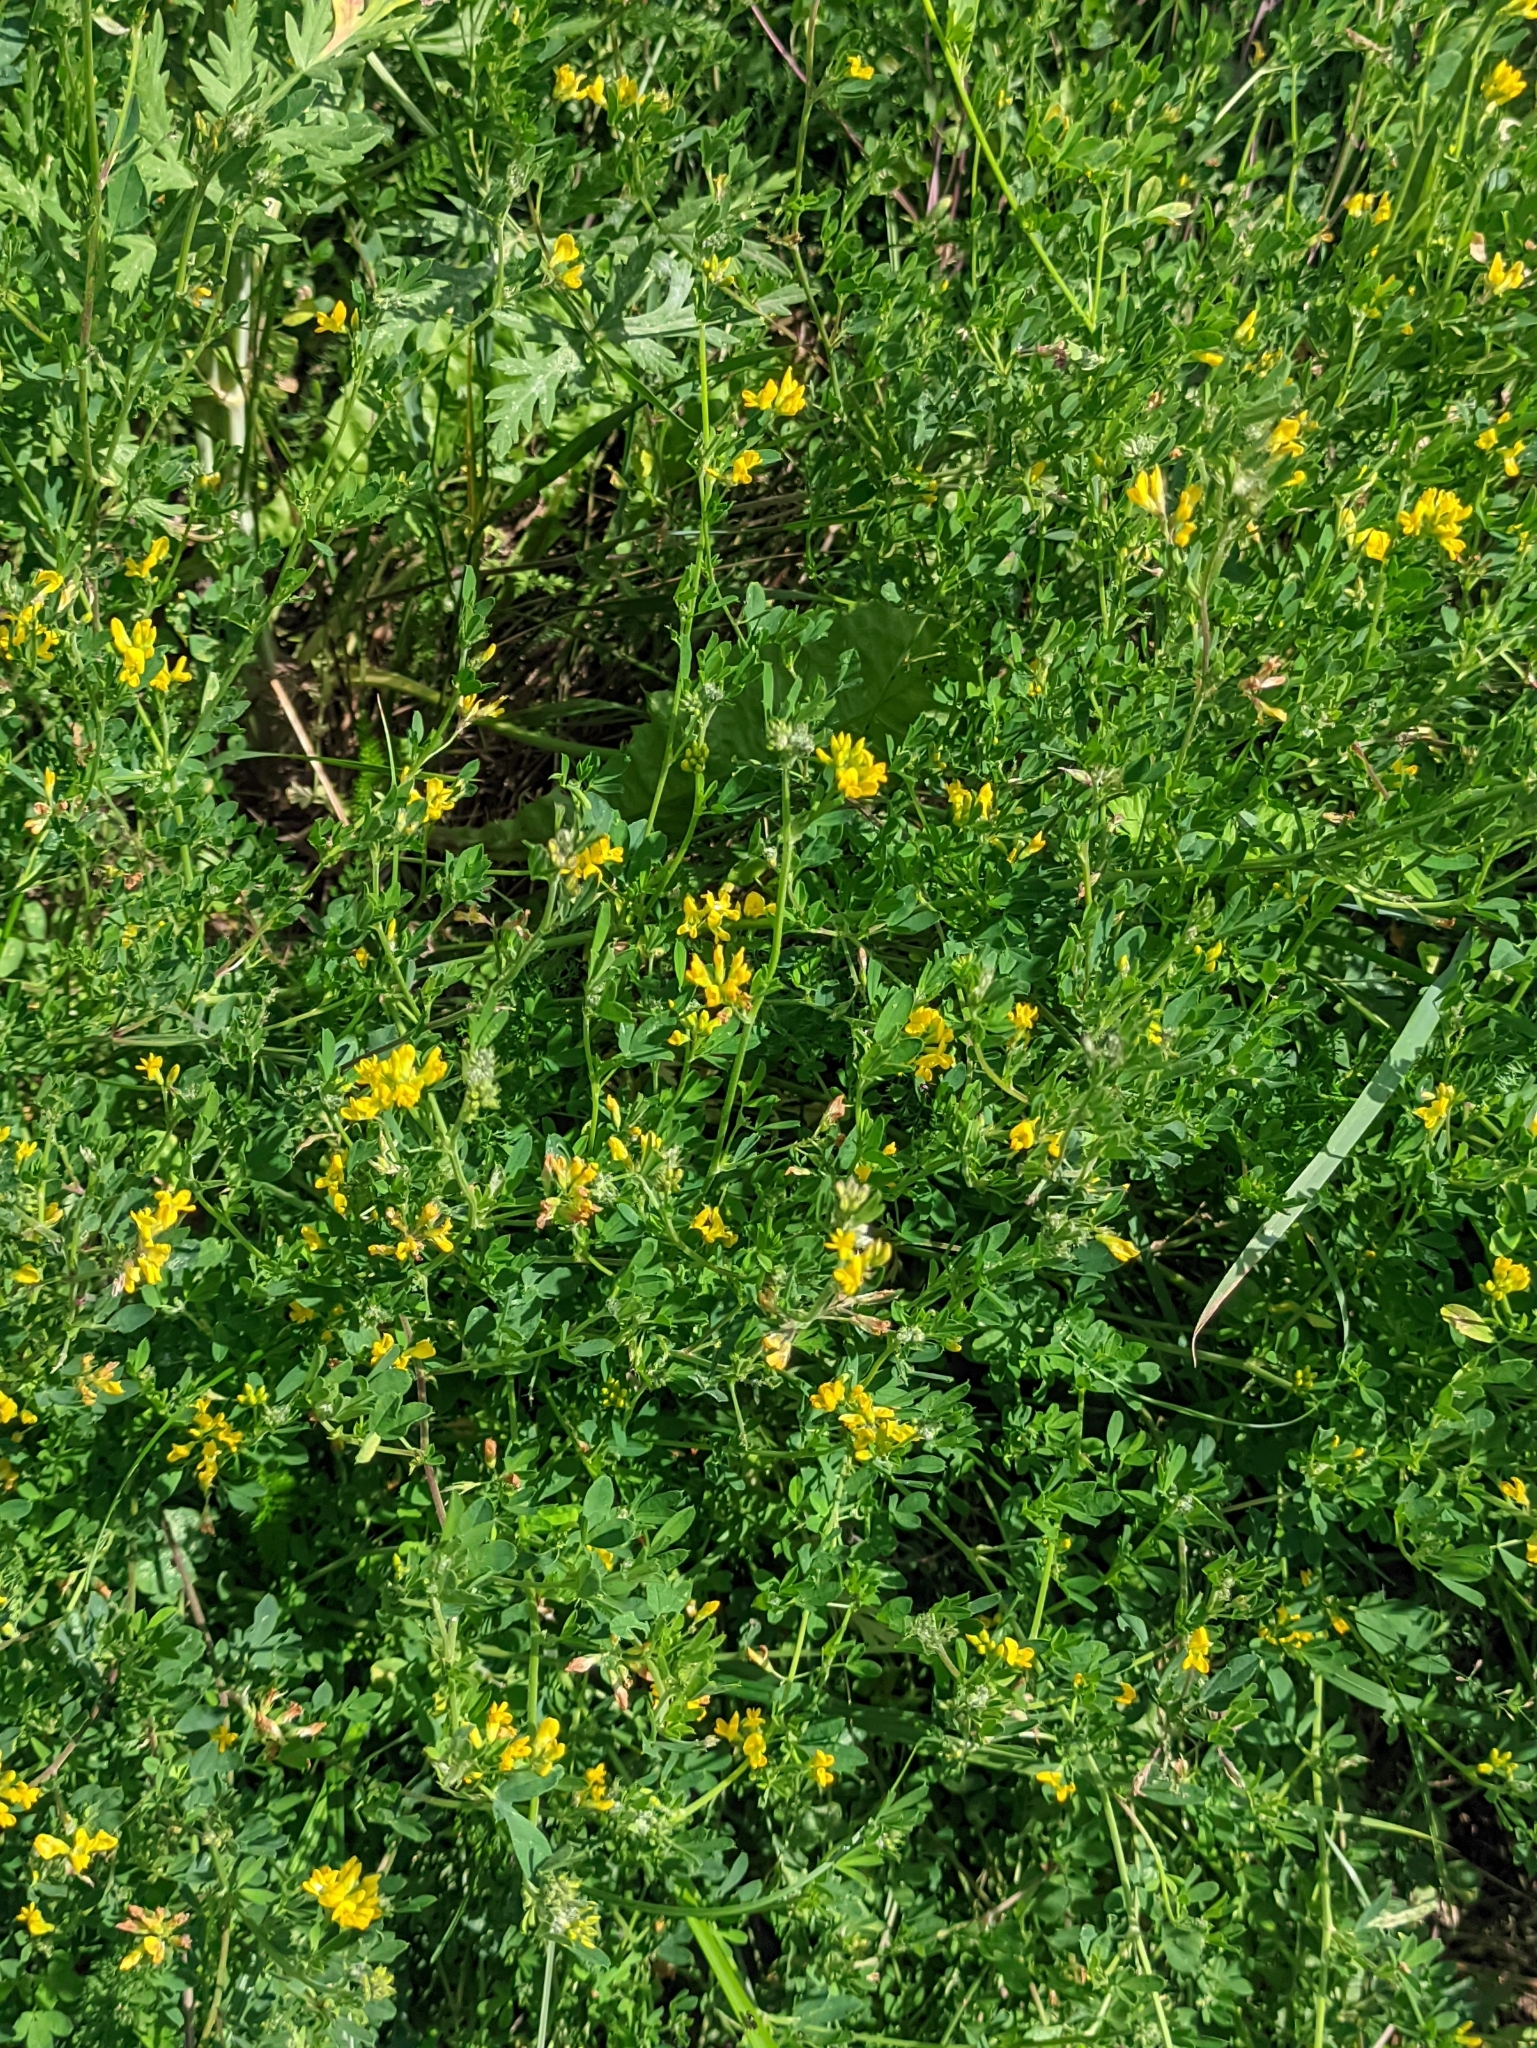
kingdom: Plantae
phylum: Tracheophyta
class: Magnoliopsida
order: Fabales
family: Fabaceae
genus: Medicago
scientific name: Medicago falcata
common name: Sickle medick
